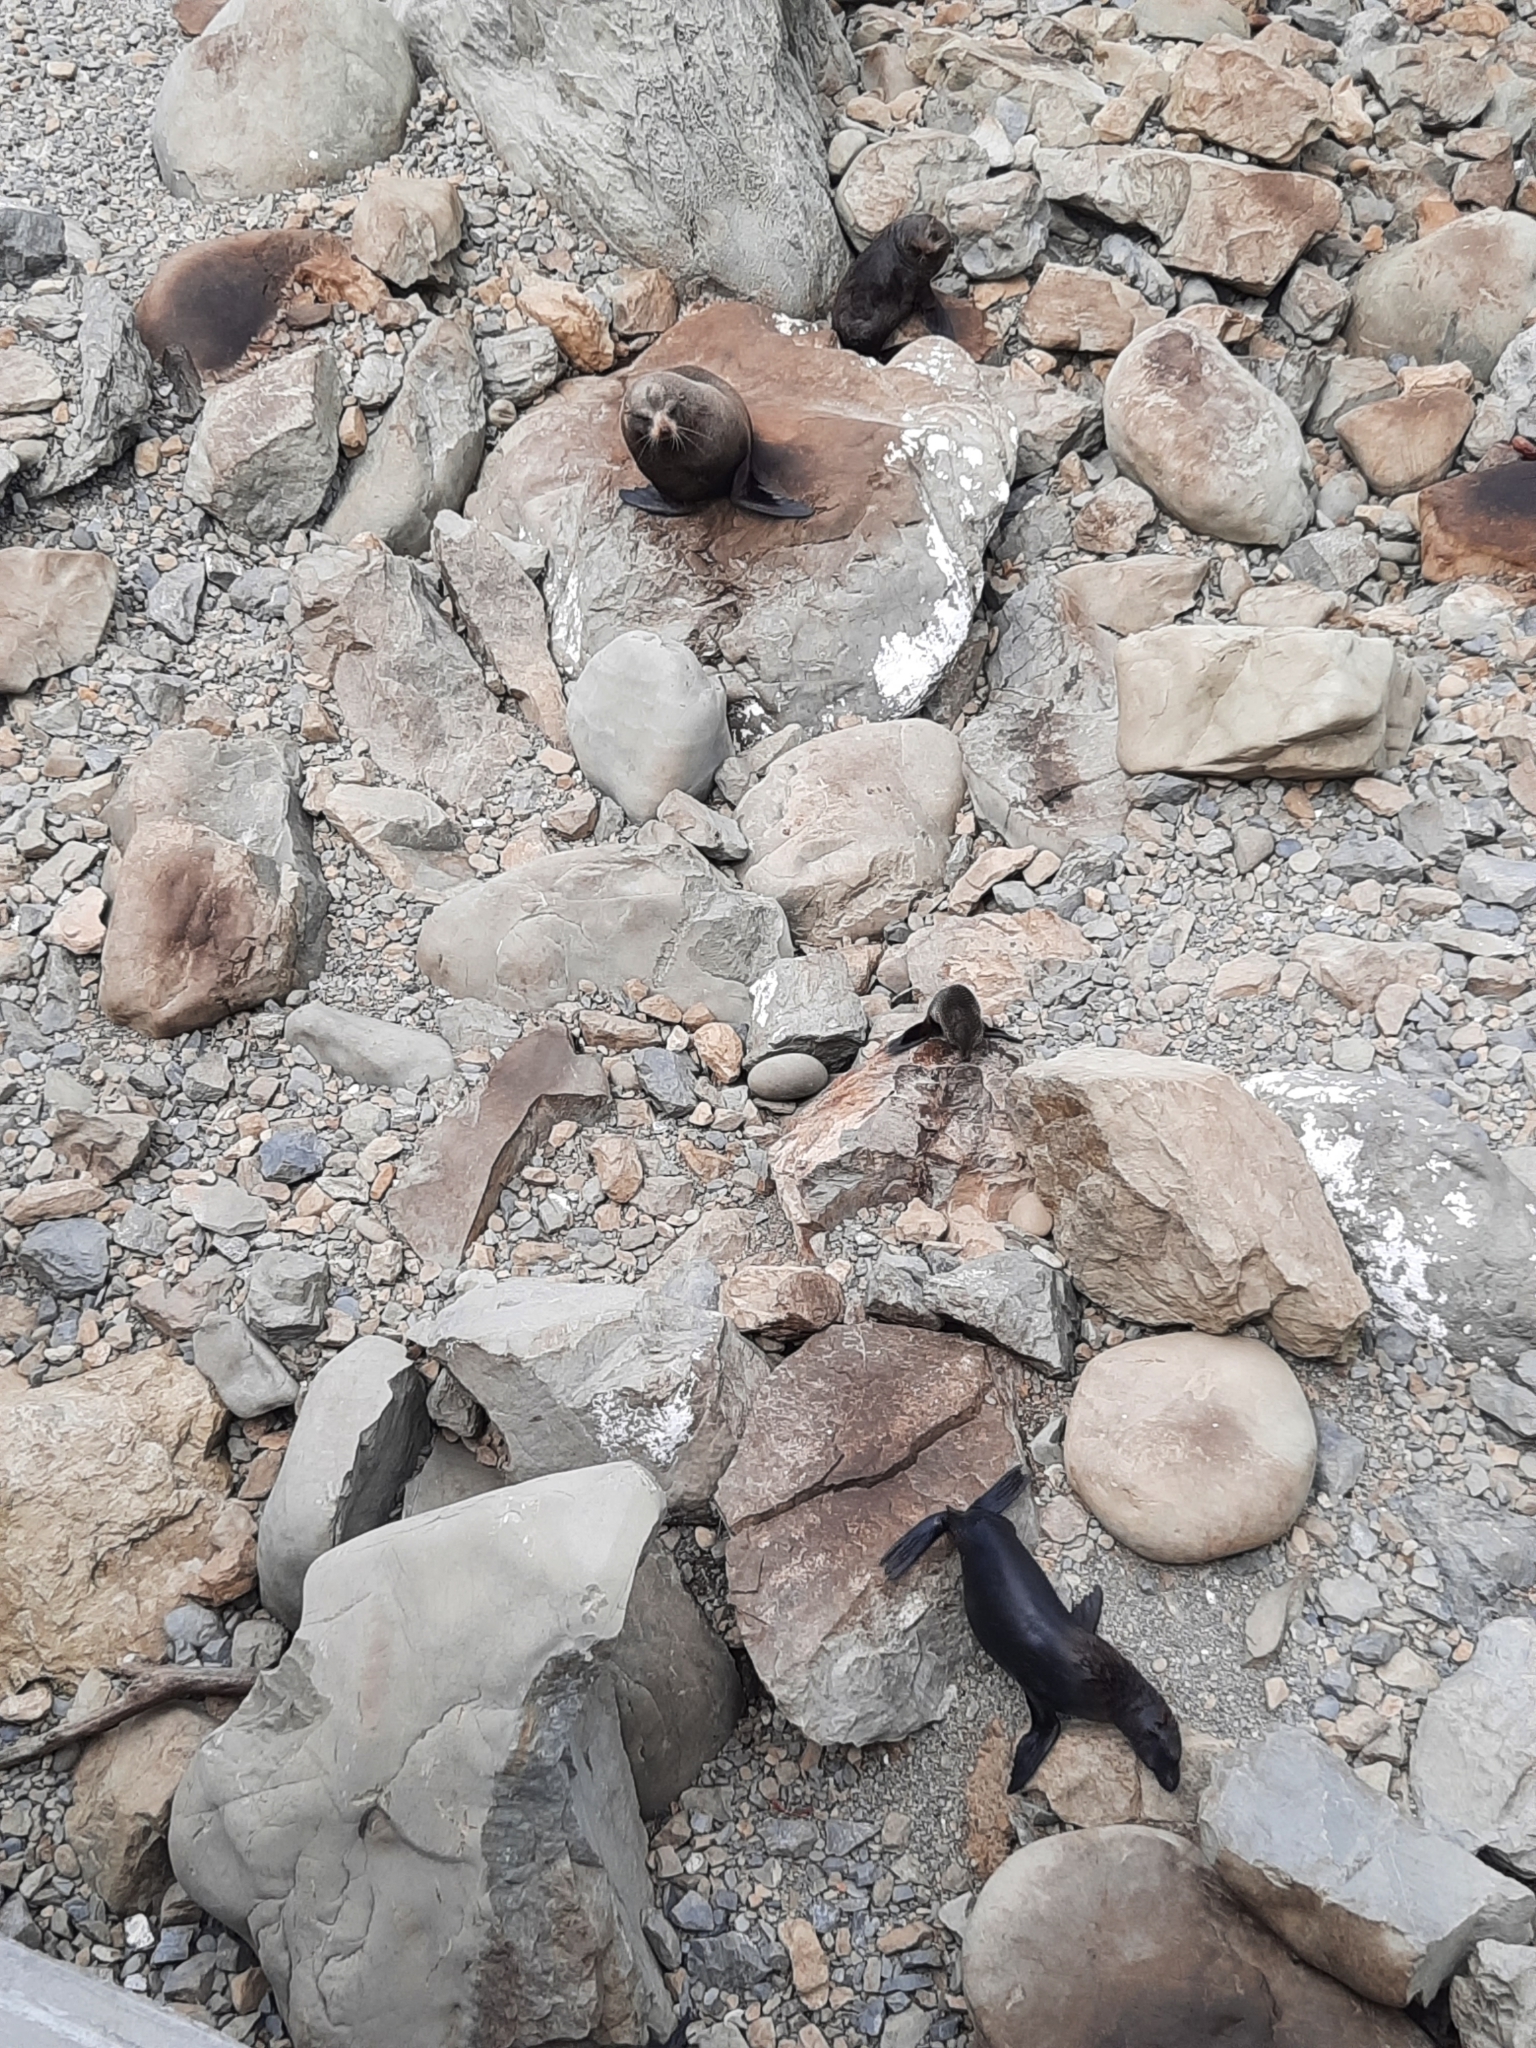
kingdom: Animalia
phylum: Chordata
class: Mammalia
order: Carnivora
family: Otariidae
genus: Arctocephalus
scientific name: Arctocephalus forsteri
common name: New zealand fur seal
